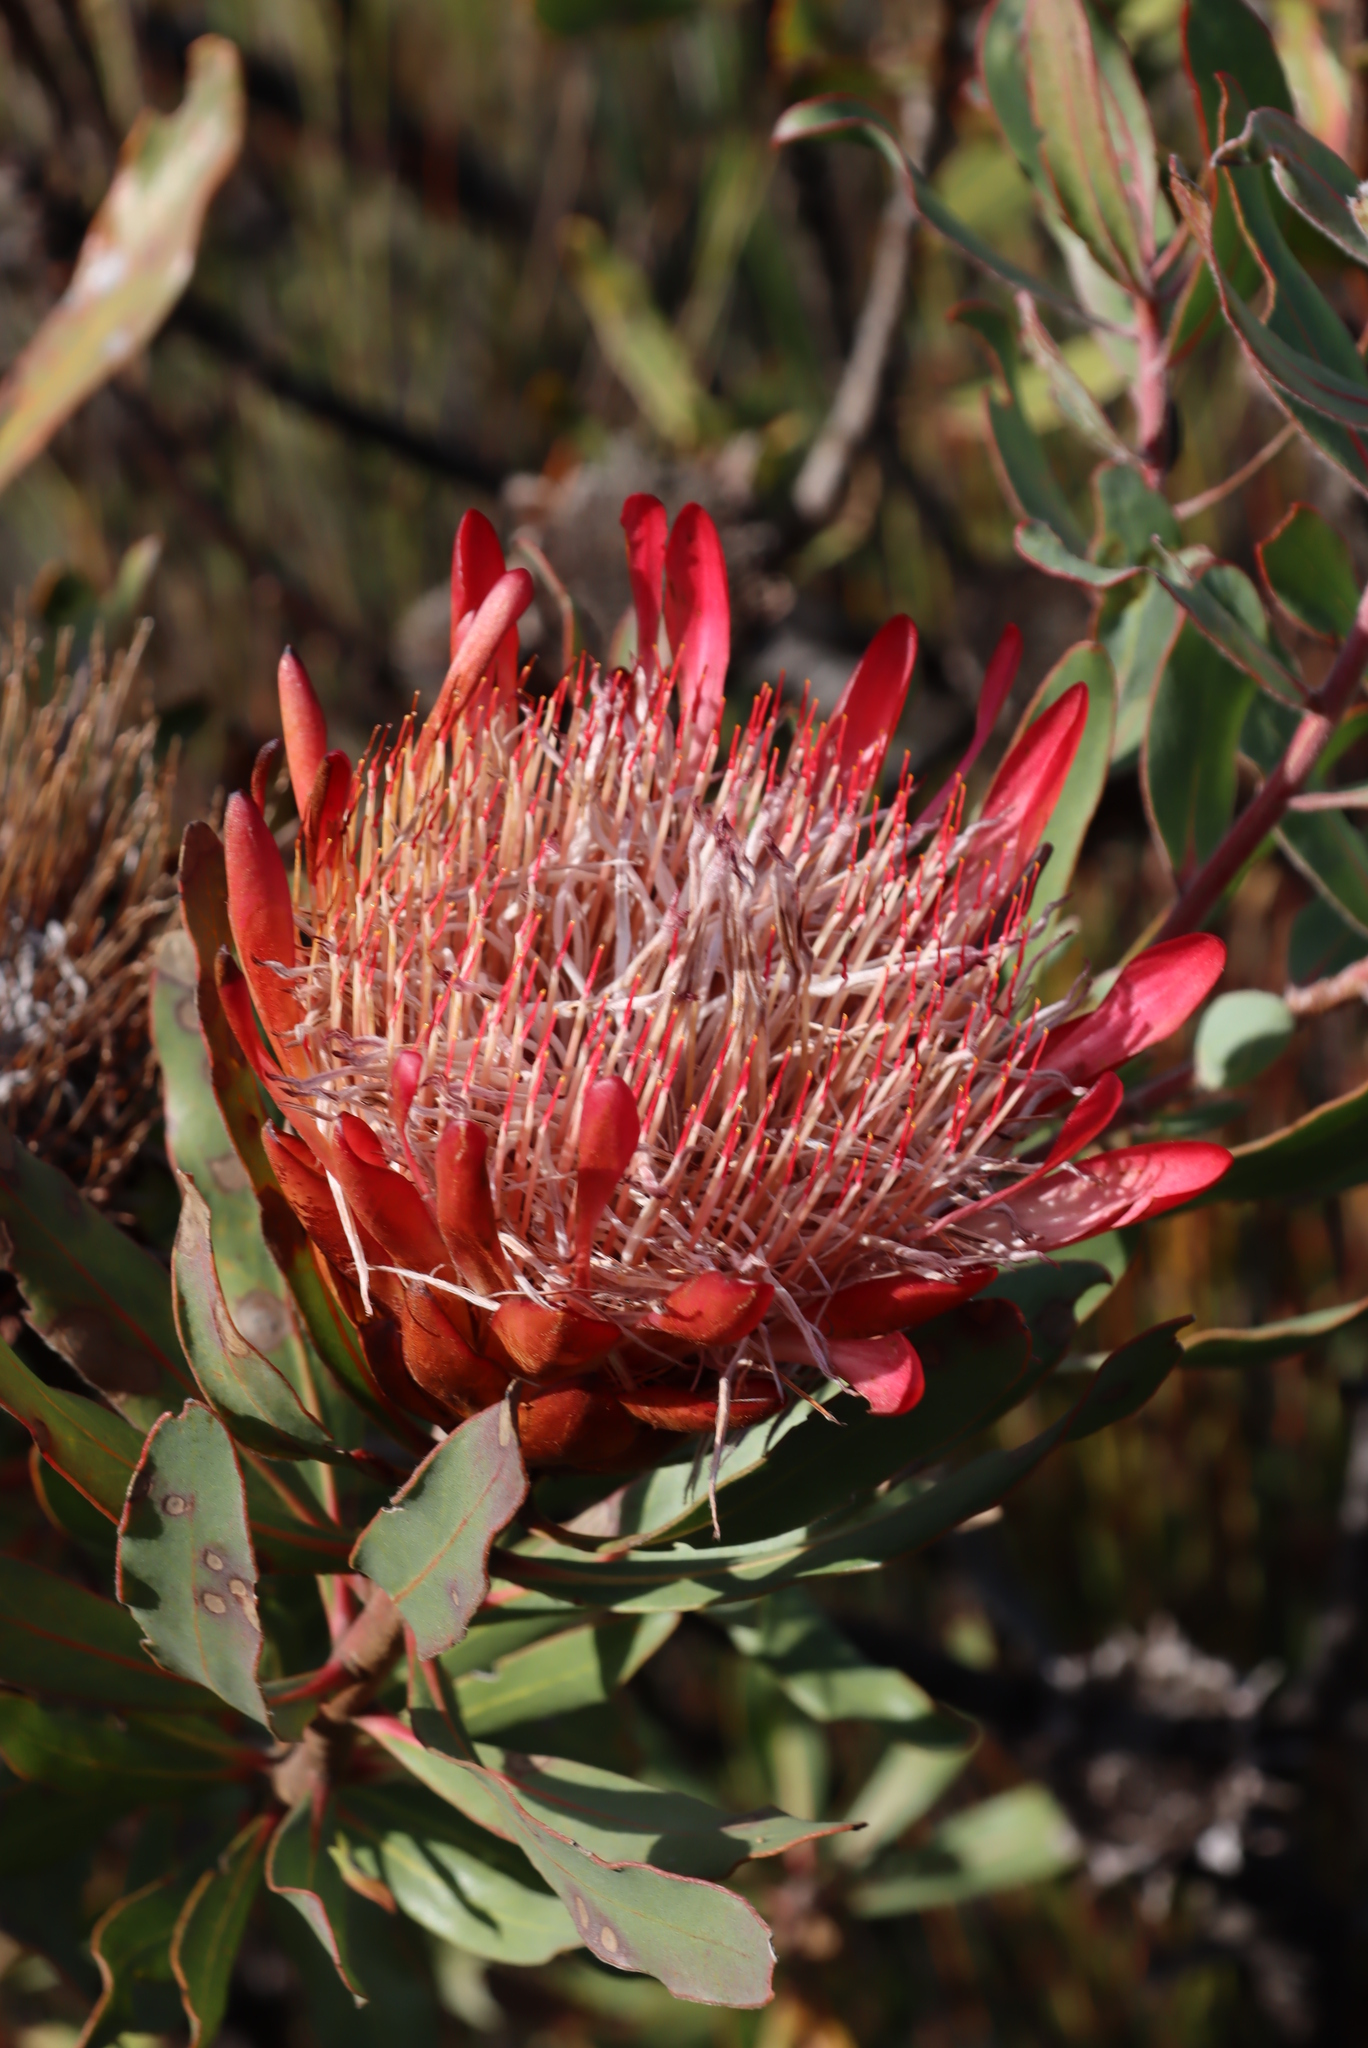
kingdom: Plantae
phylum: Tracheophyta
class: Magnoliopsida
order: Proteales
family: Proteaceae
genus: Protea
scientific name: Protea susannae
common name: Foetid-leaf sugarbush
